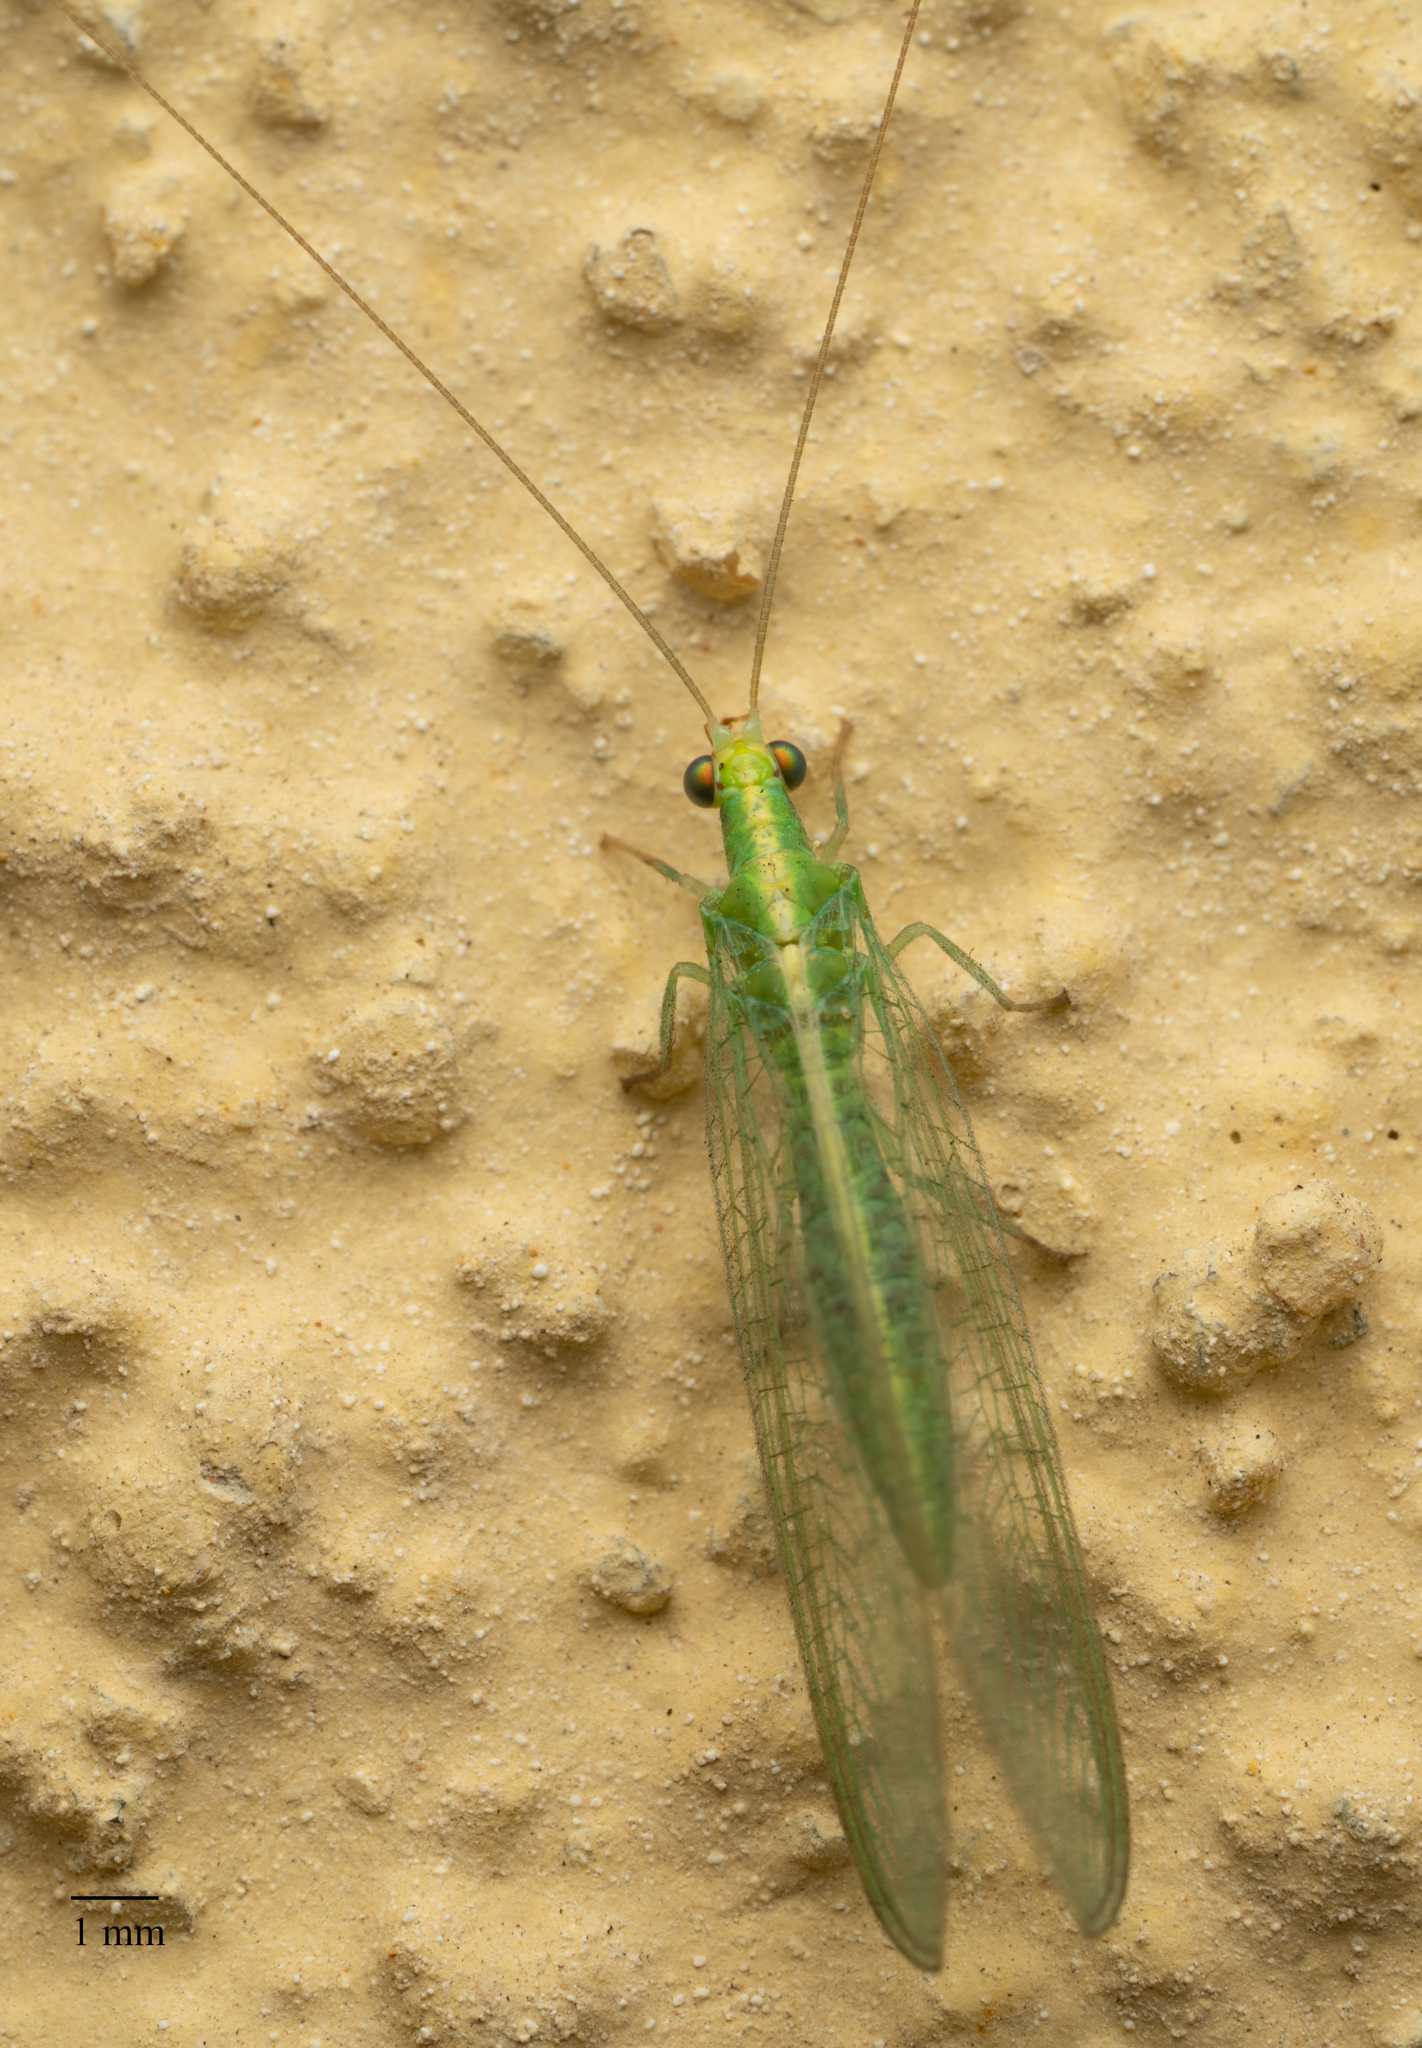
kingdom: Animalia
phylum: Arthropoda
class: Insecta
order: Neuroptera
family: Chrysopidae
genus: Chrysoperla
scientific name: Chrysoperla
